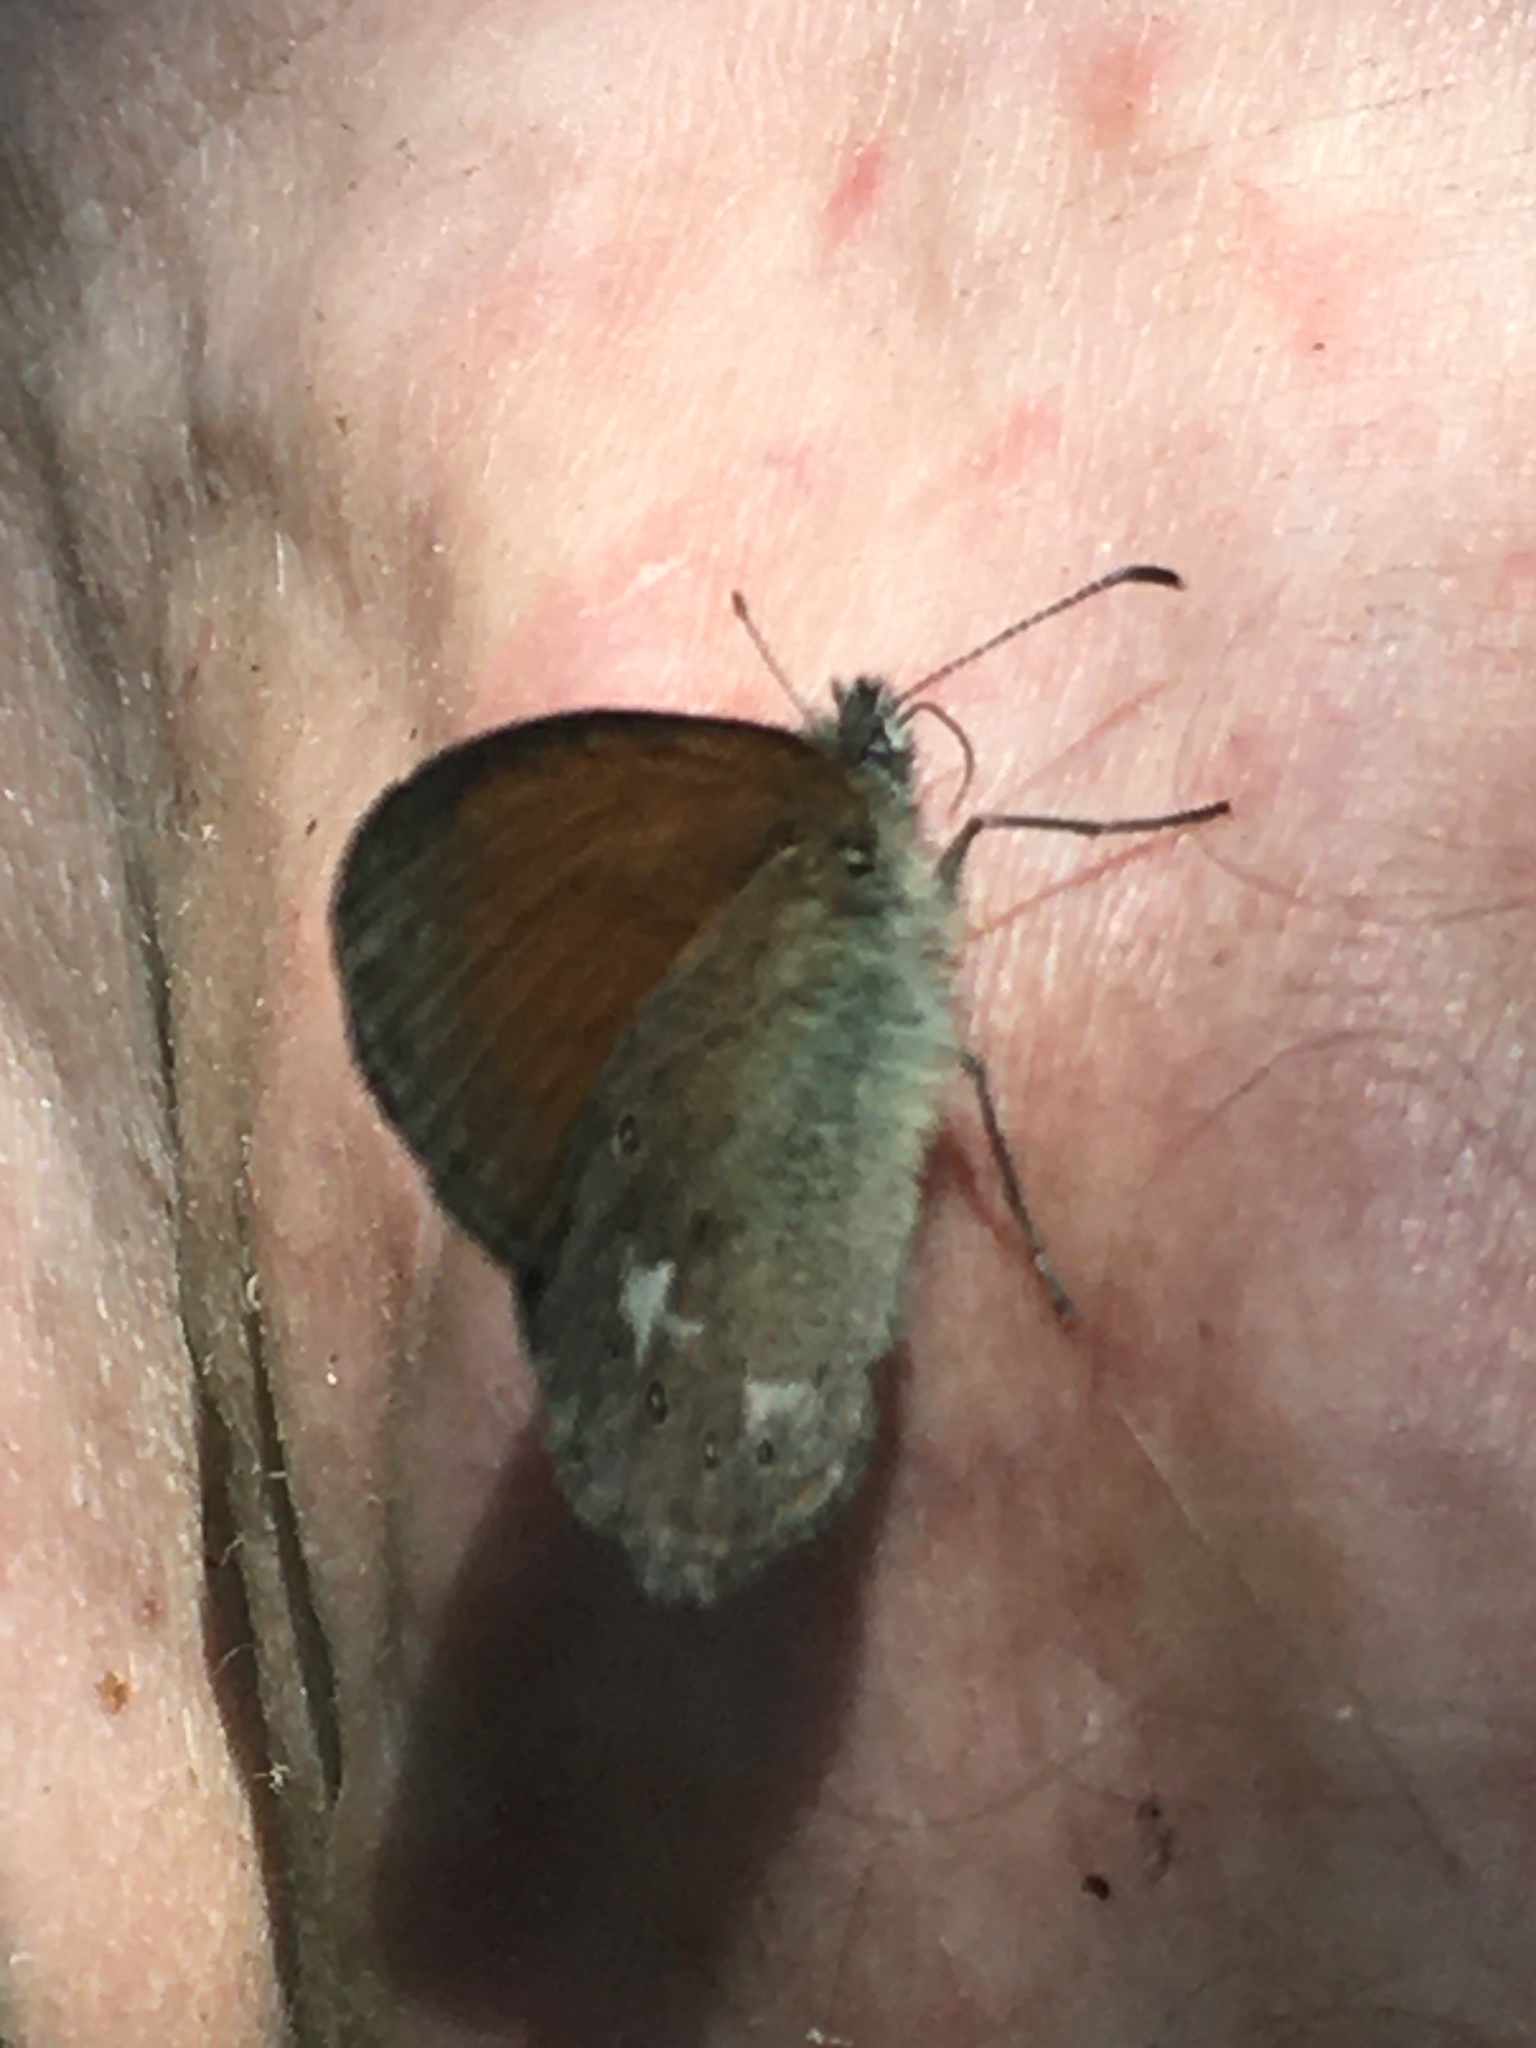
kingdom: Animalia
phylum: Arthropoda
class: Insecta
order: Lepidoptera
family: Nymphalidae
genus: Coenonympha
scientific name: Coenonympha iphis
